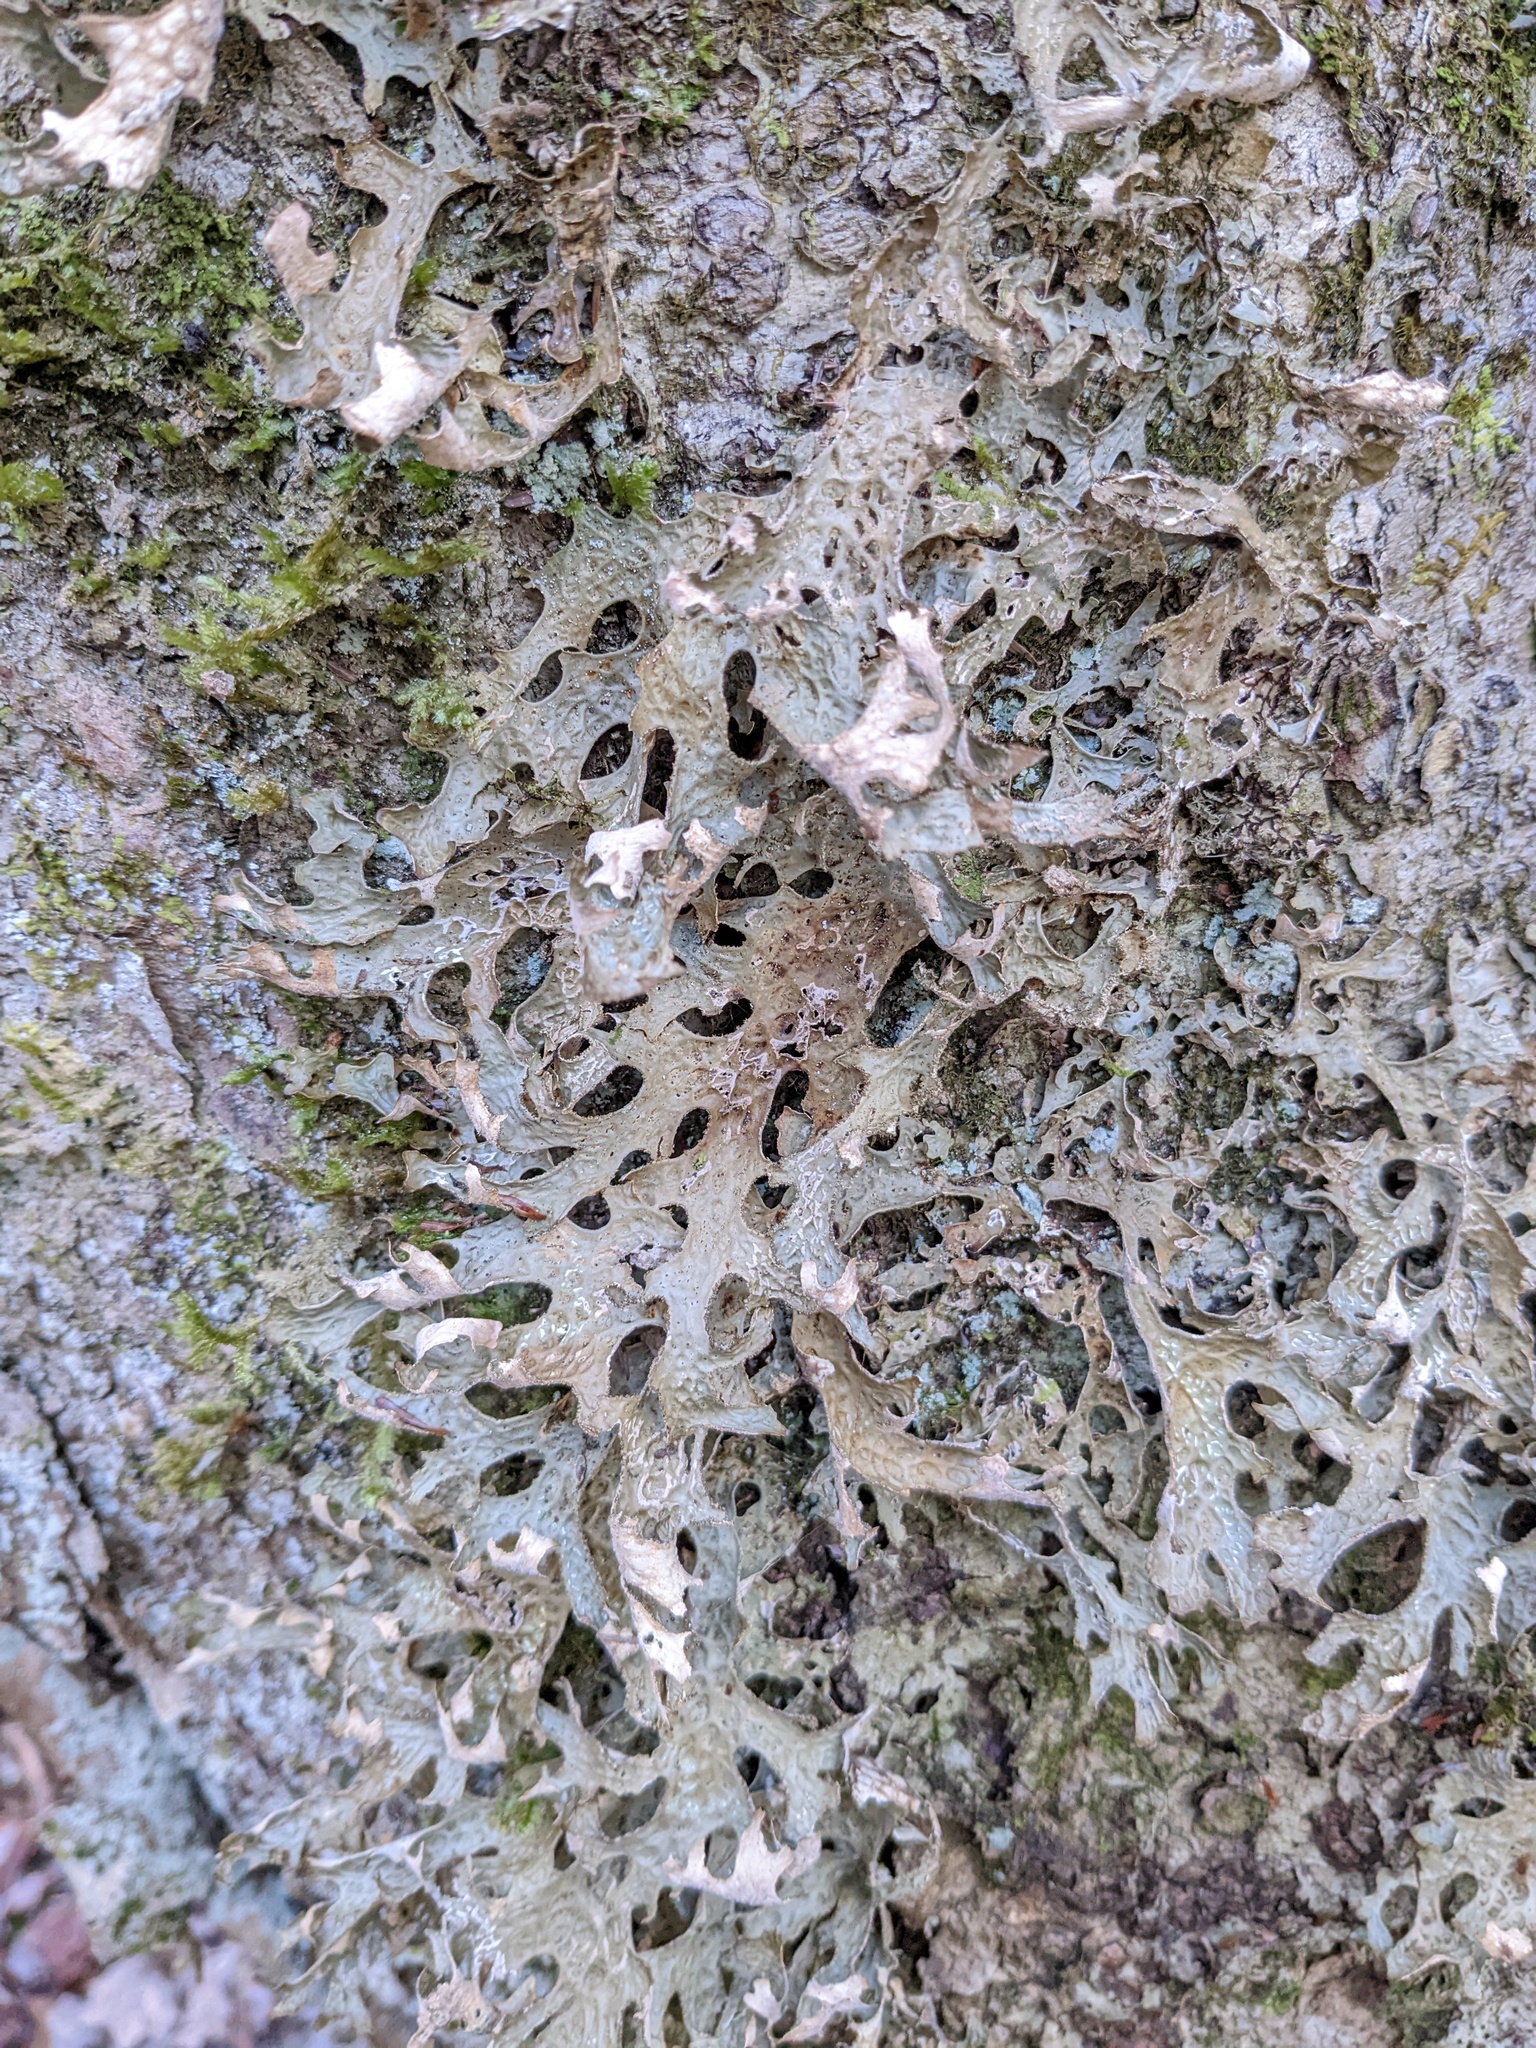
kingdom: Fungi
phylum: Ascomycota
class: Lecanoromycetes
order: Peltigerales
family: Lobariaceae
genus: Lobaria
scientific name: Lobaria pulmonaria
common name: Lungwort
